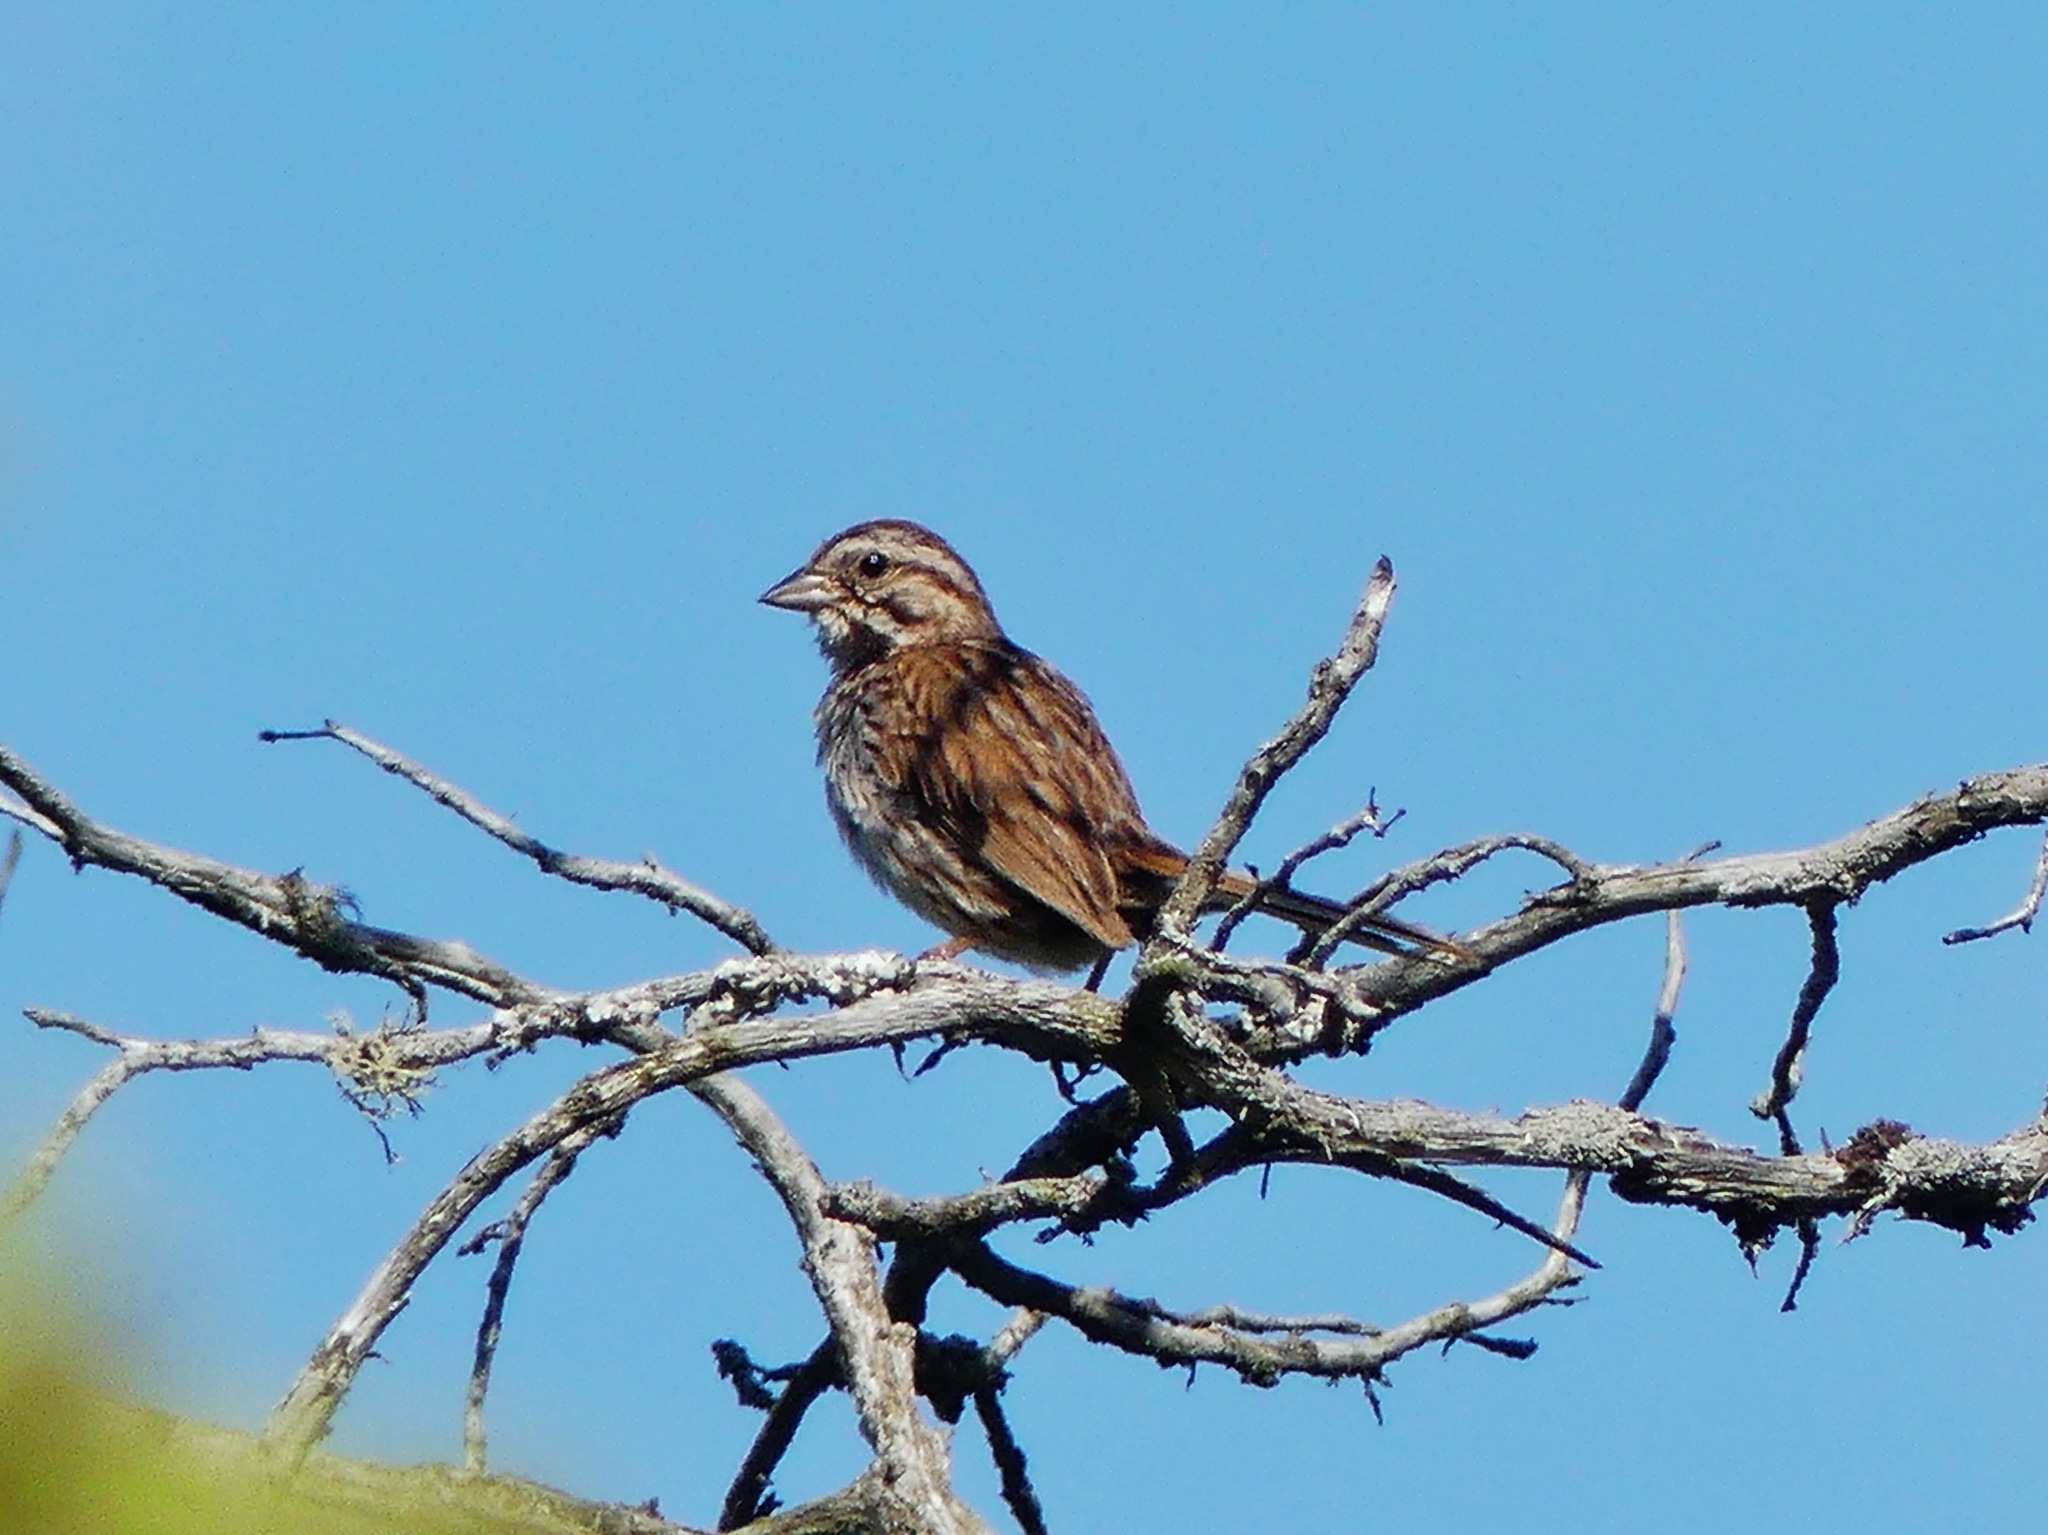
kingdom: Animalia
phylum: Chordata
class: Aves
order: Passeriformes
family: Passerellidae
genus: Melospiza
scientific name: Melospiza melodia
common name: Song sparrow
